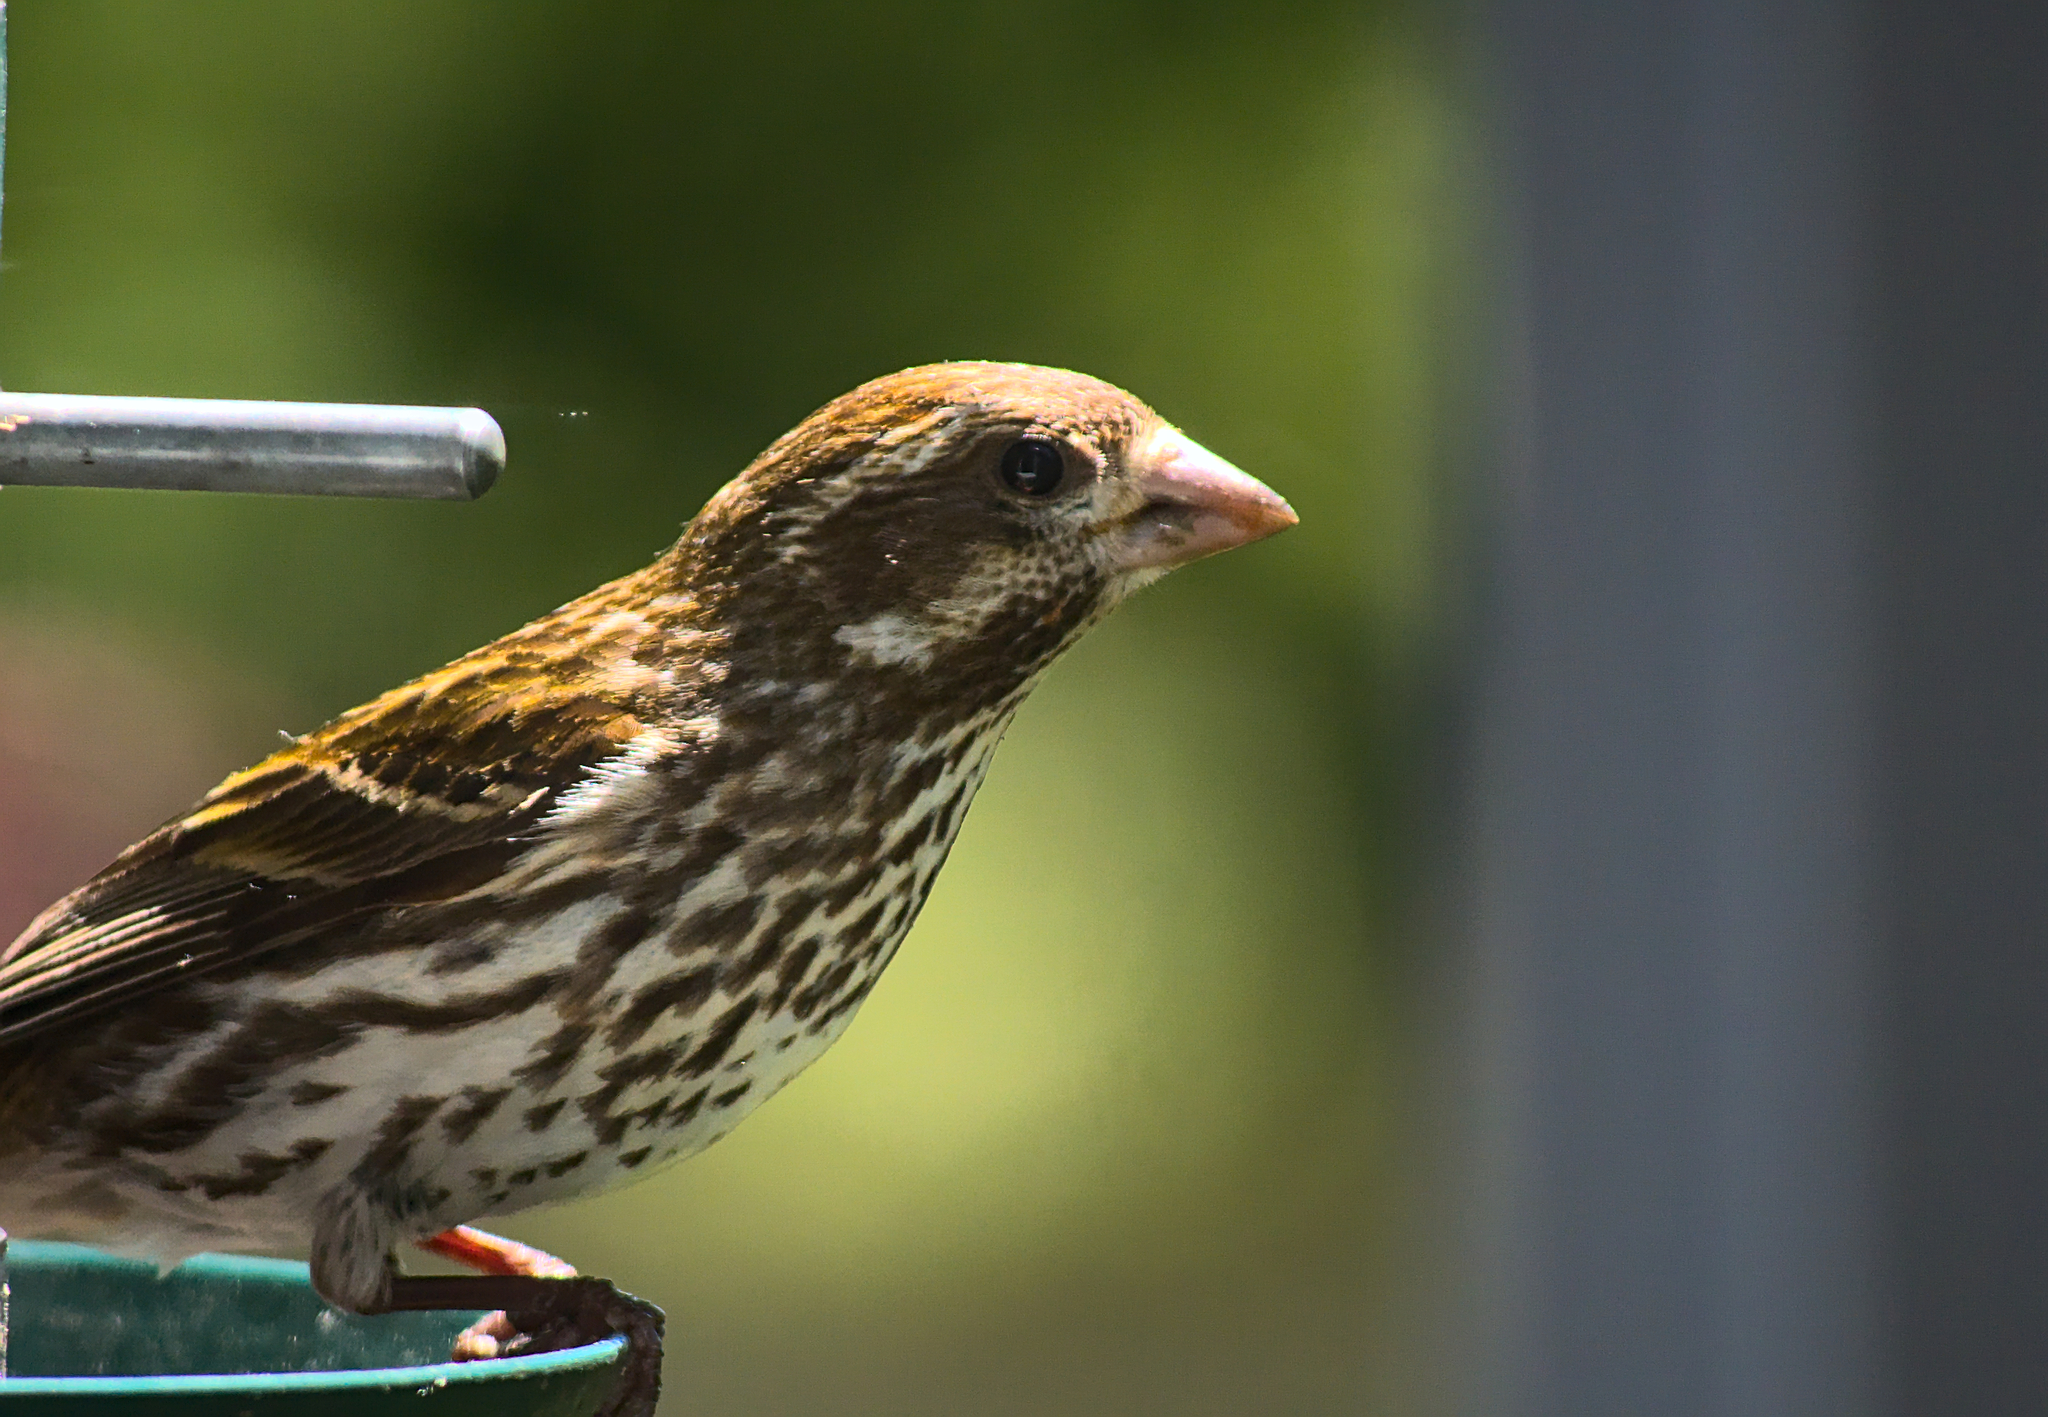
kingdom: Animalia
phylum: Chordata
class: Aves
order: Passeriformes
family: Fringillidae
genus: Haemorhous
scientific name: Haemorhous purpureus
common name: Purple finch
